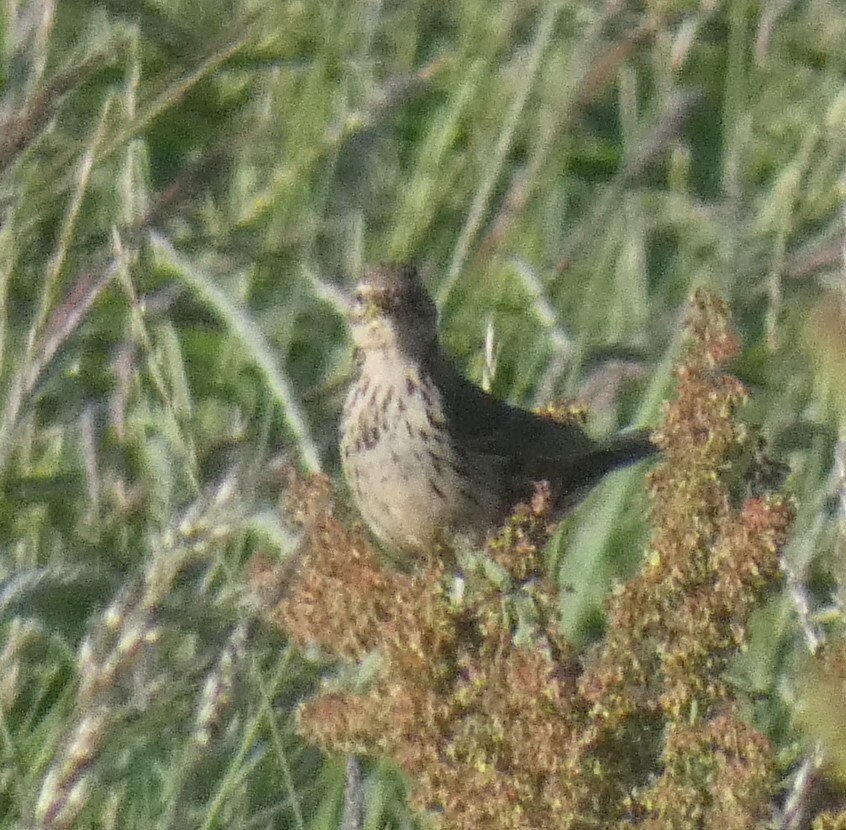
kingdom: Animalia
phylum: Chordata
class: Aves
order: Passeriformes
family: Motacillidae
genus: Anthus
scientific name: Anthus pratensis
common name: Meadow pipit
